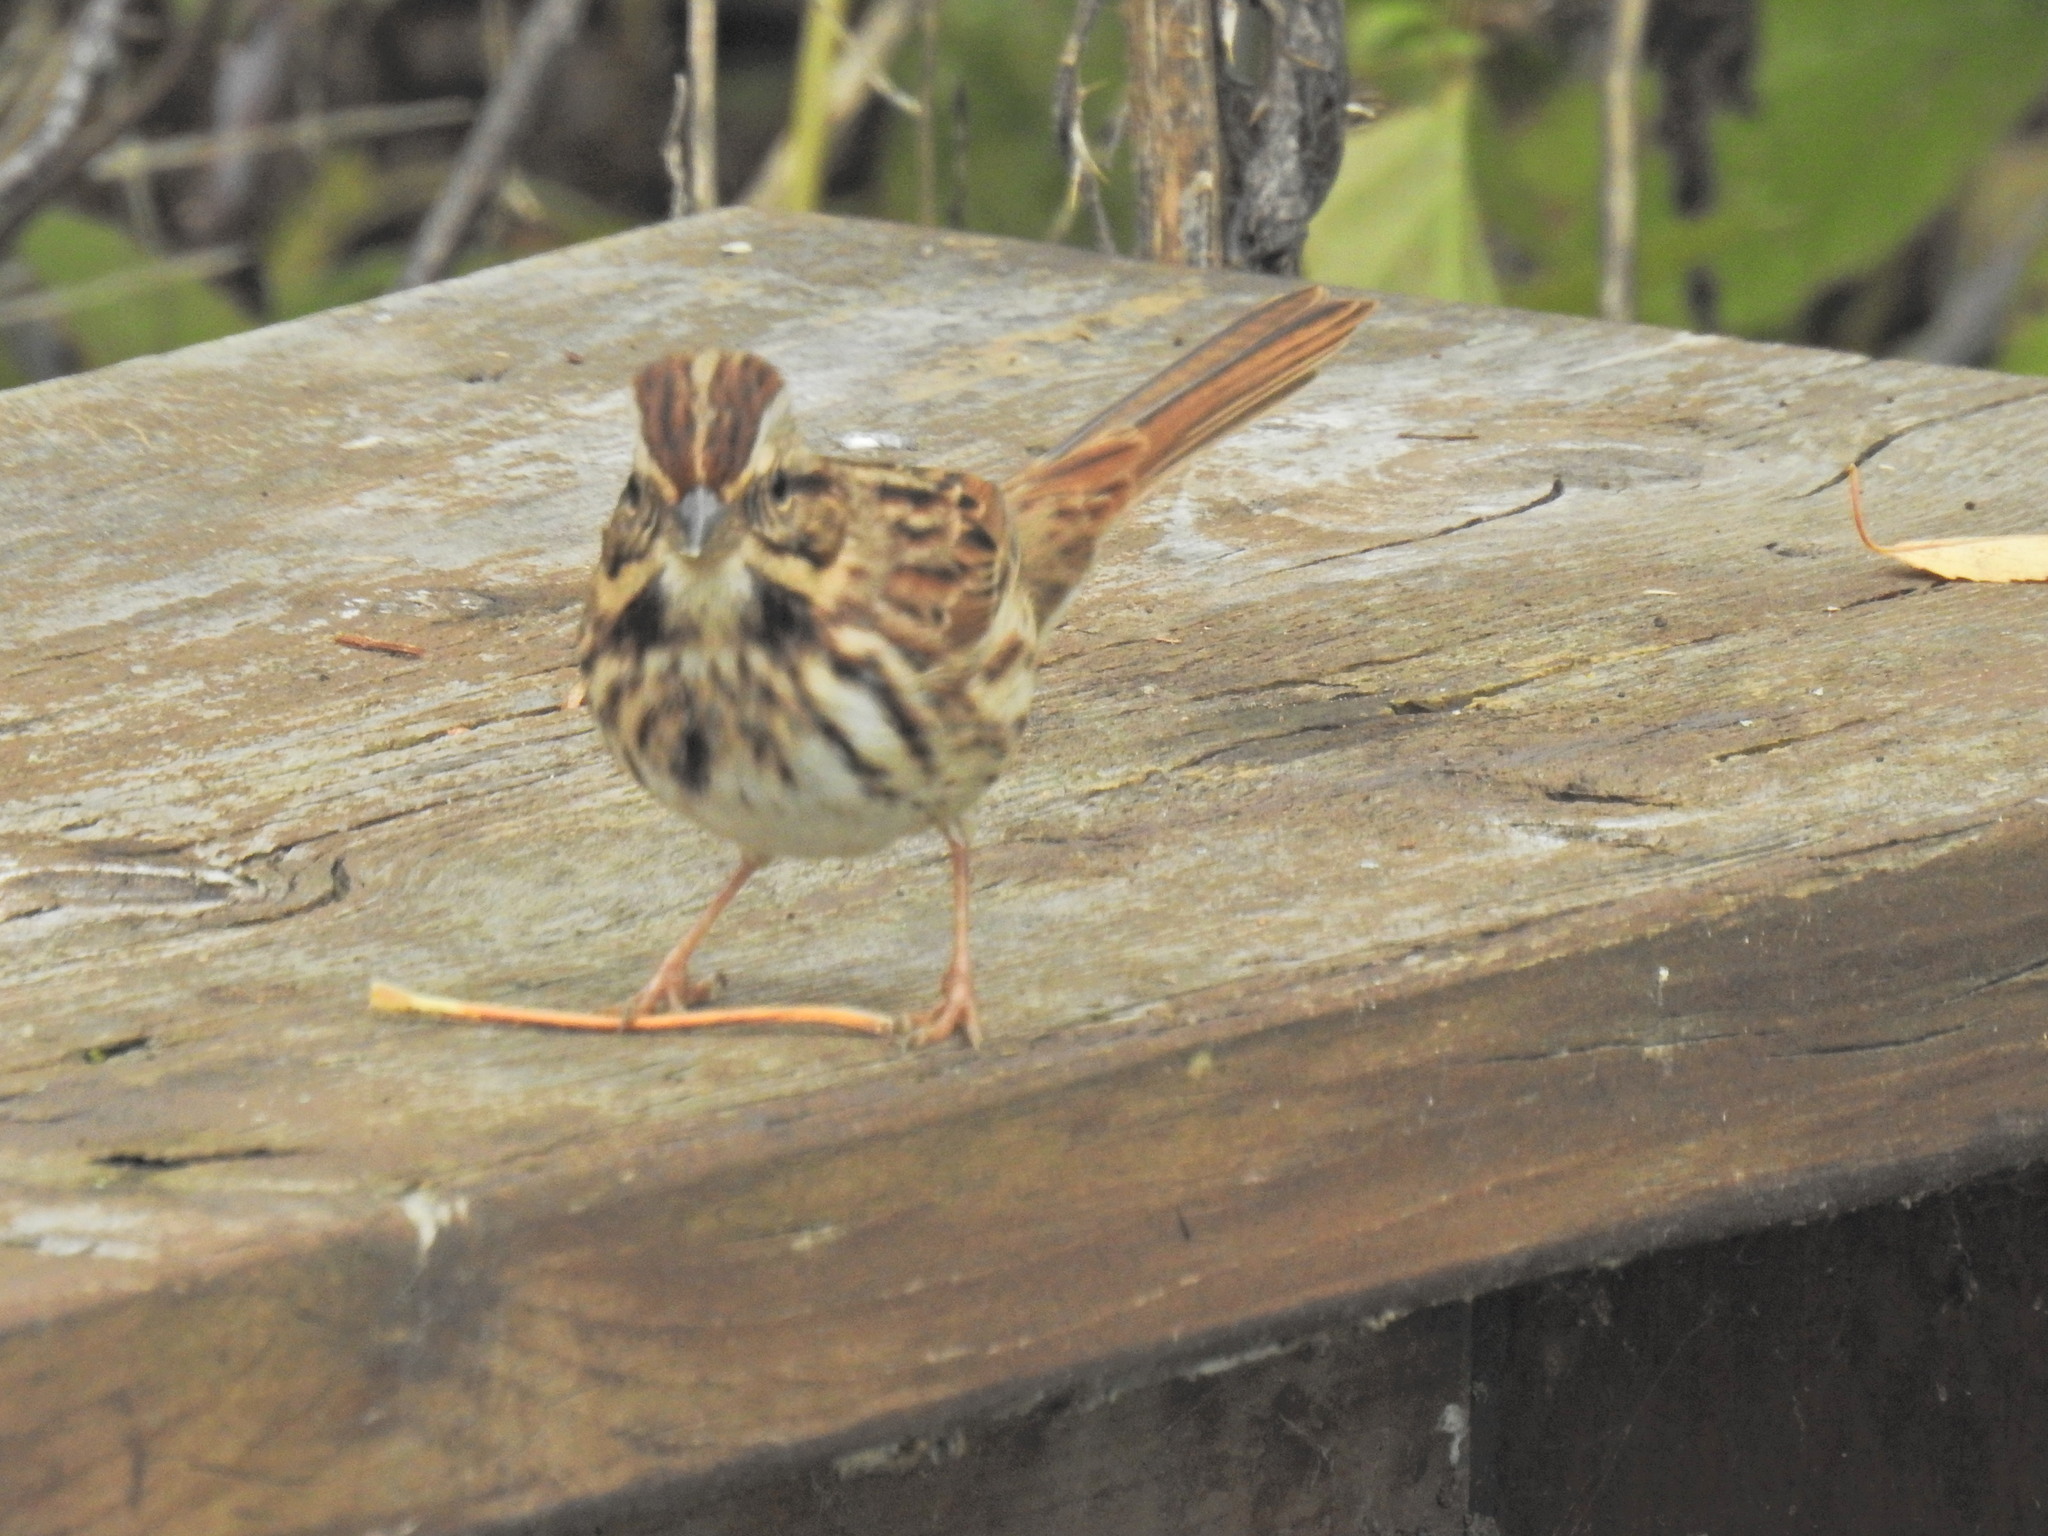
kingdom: Animalia
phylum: Chordata
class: Aves
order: Passeriformes
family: Passerellidae
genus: Melospiza
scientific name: Melospiza melodia
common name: Song sparrow
